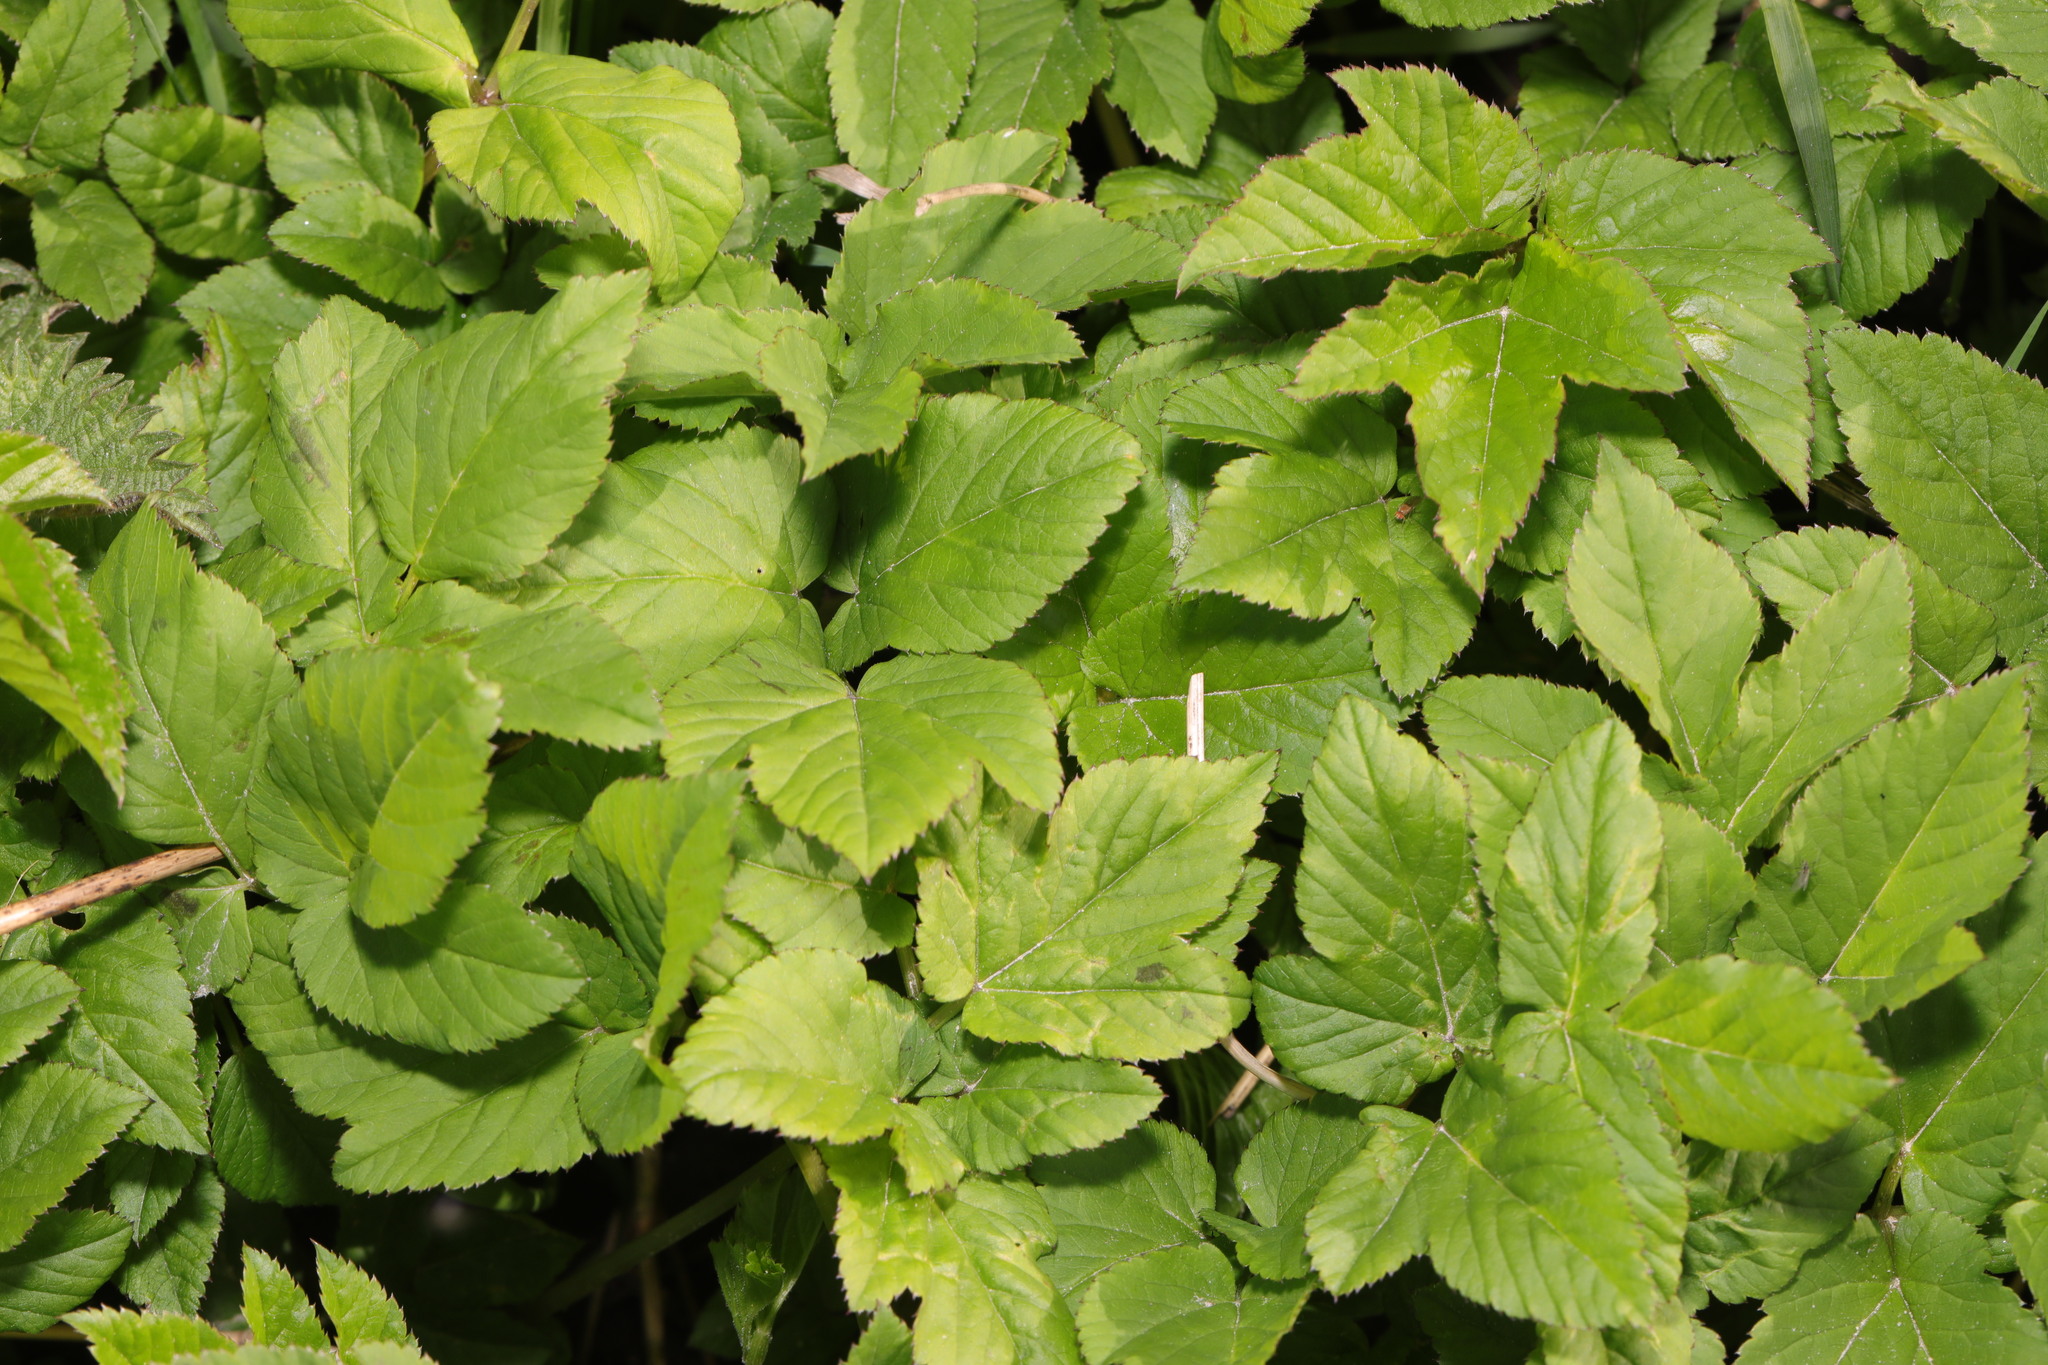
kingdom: Plantae
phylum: Tracheophyta
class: Magnoliopsida
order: Apiales
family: Apiaceae
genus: Aegopodium
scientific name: Aegopodium podagraria
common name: Ground-elder
